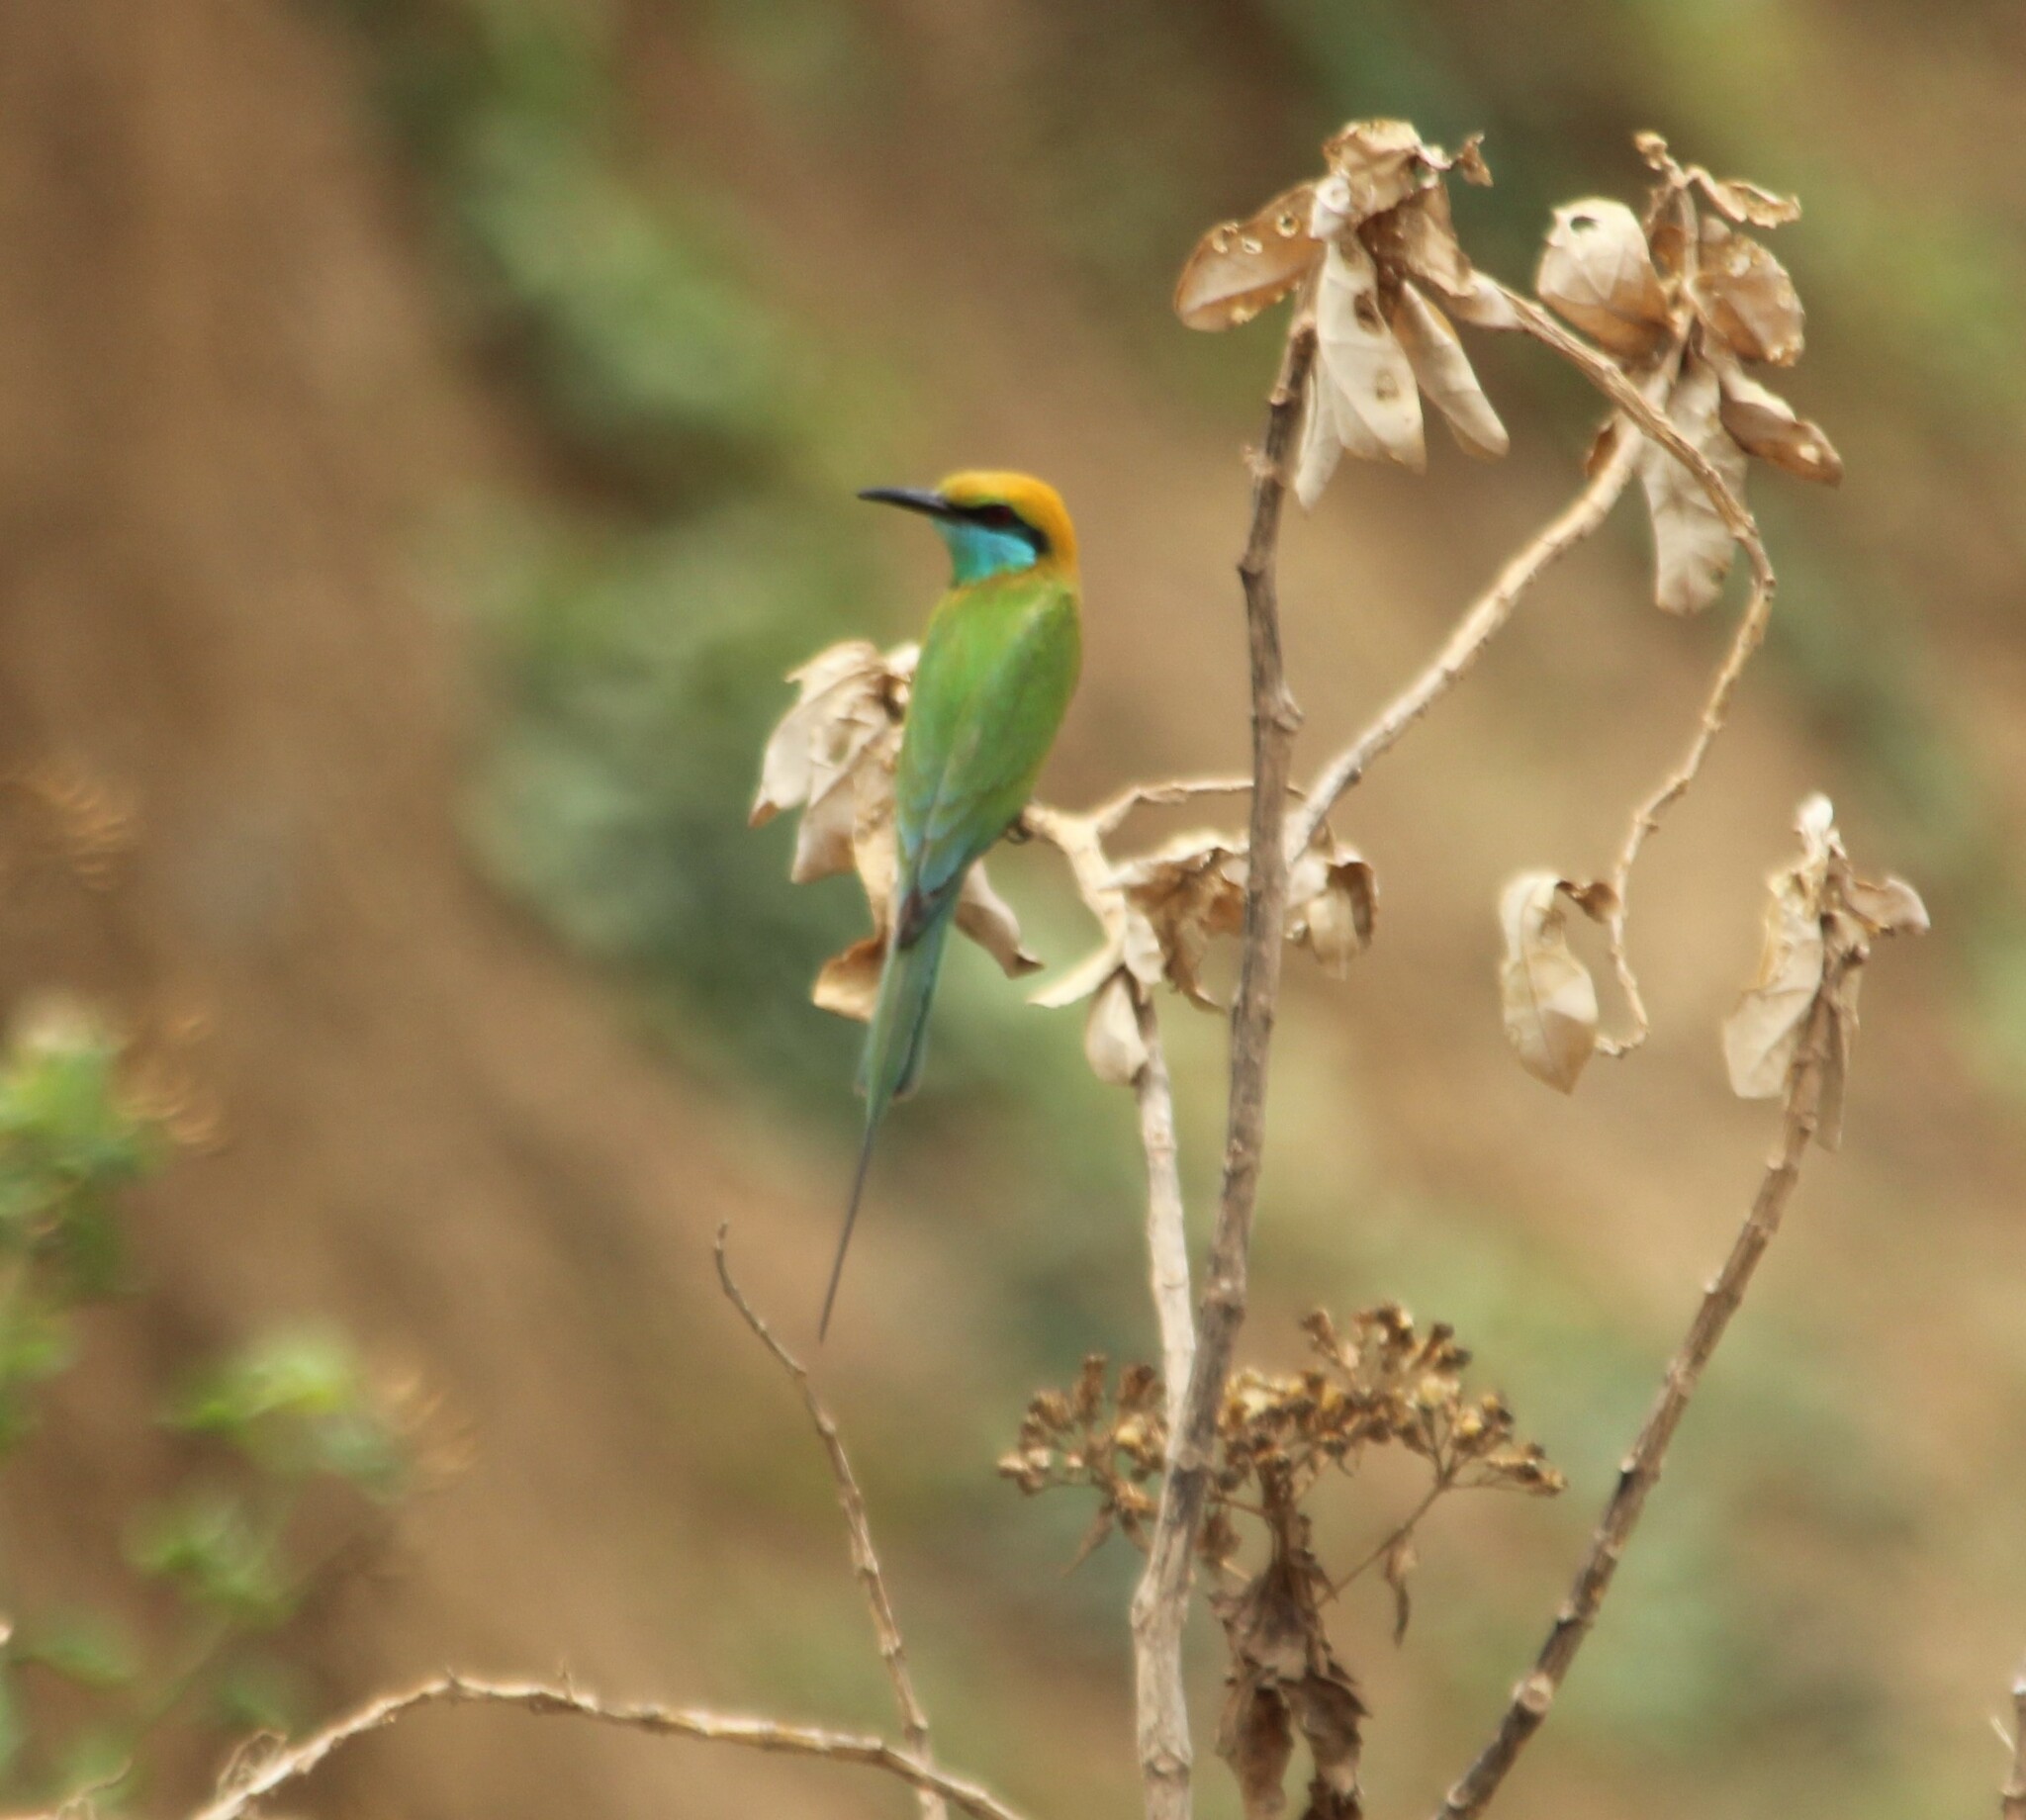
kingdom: Animalia
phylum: Chordata
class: Aves
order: Coraciiformes
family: Meropidae
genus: Merops
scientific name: Merops orientalis
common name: Green bee-eater
